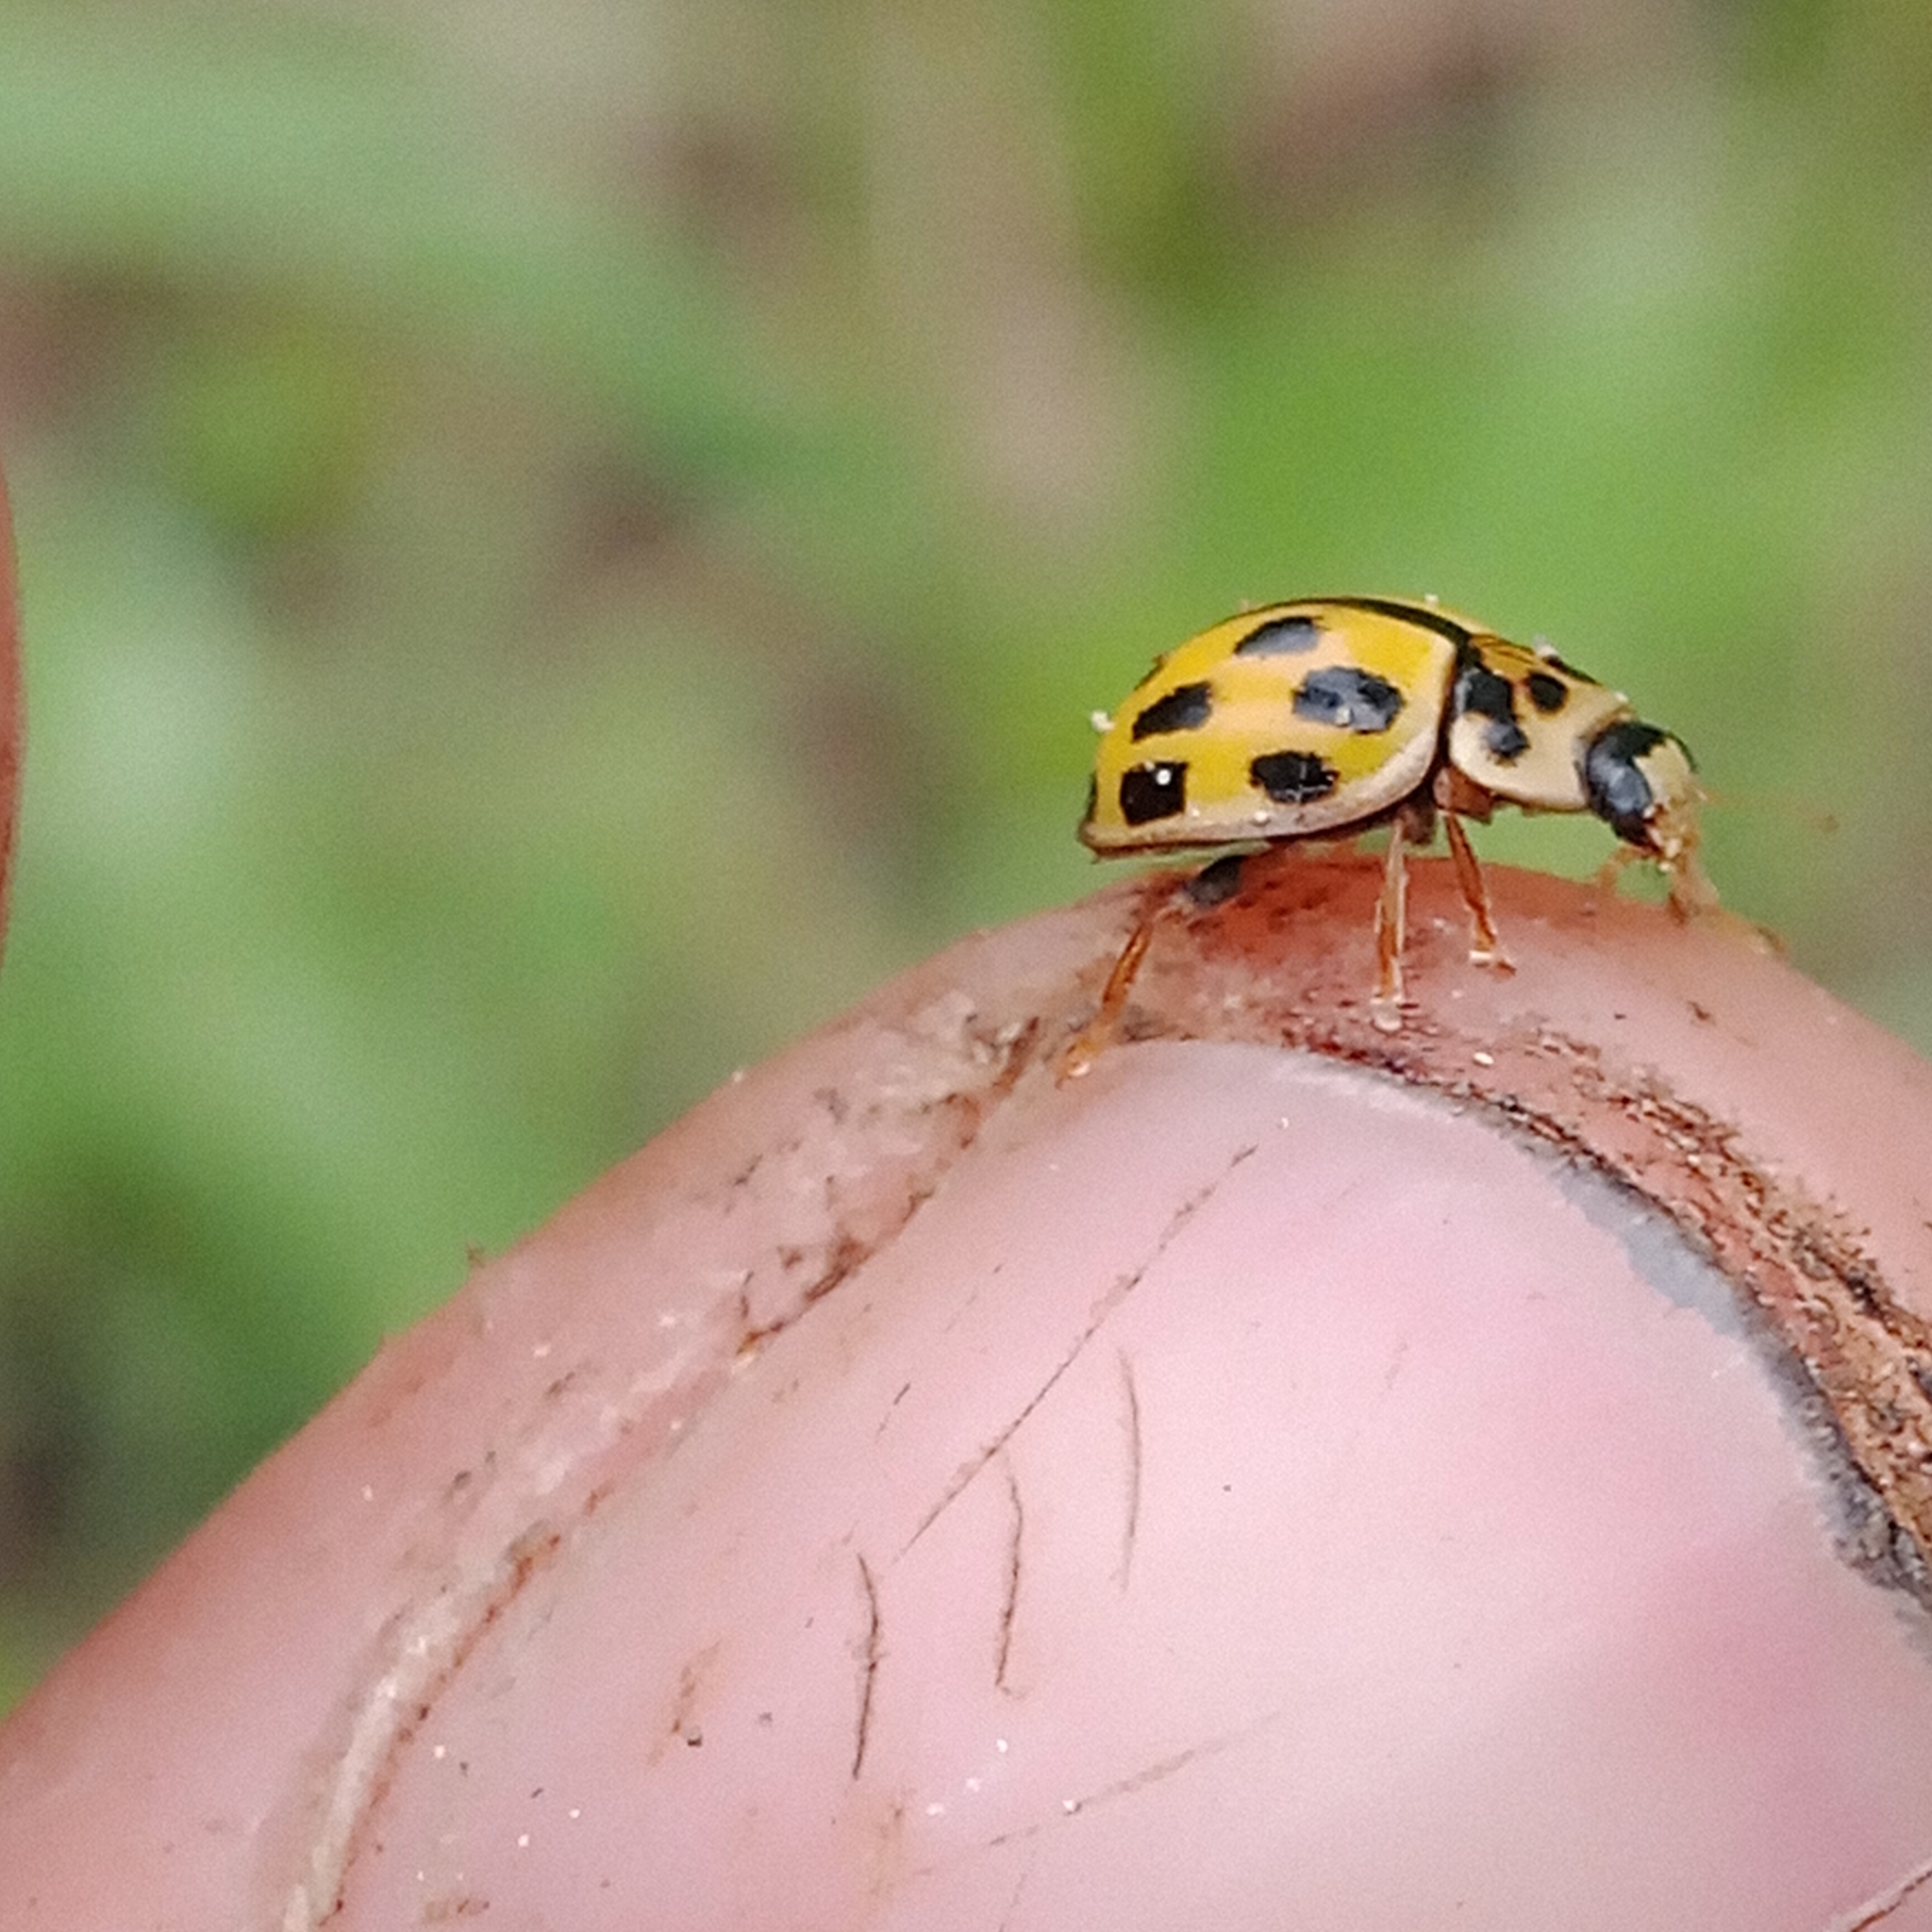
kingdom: Animalia
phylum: Arthropoda
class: Insecta
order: Coleoptera
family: Coccinellidae
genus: Propylaea
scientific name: Propylaea quatuordecimpunctata
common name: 14-spotted ladybird beetle
